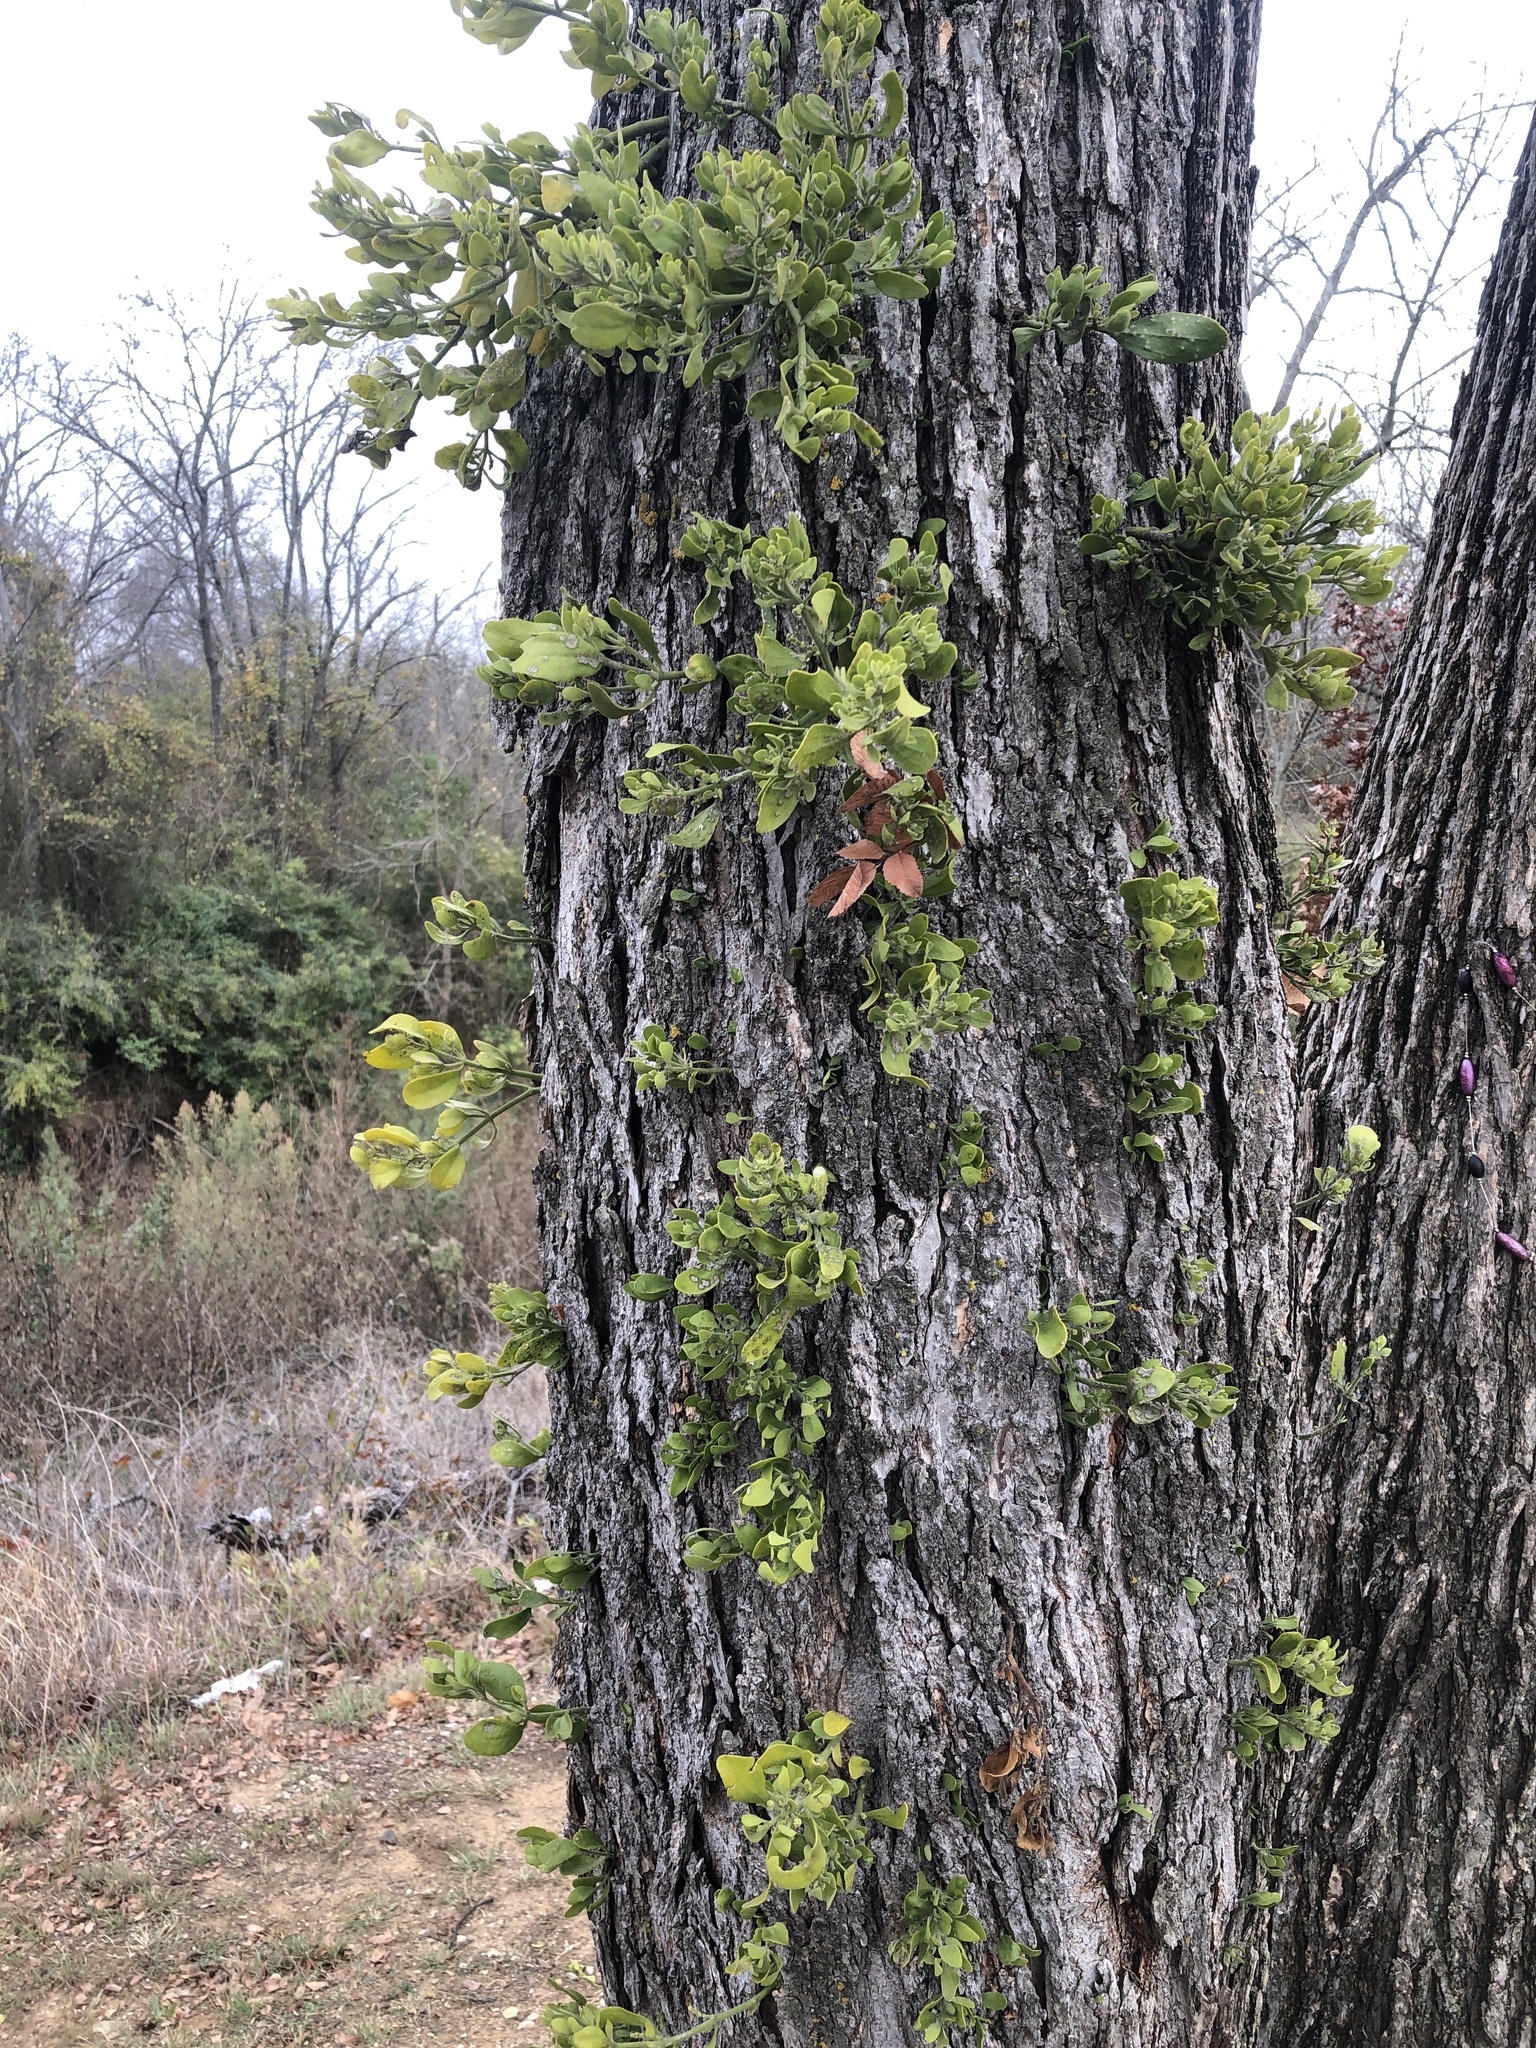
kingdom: Plantae
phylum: Tracheophyta
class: Magnoliopsida
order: Santalales
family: Viscaceae
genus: Phoradendron
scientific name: Phoradendron leucarpum
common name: Pacific mistletoe
